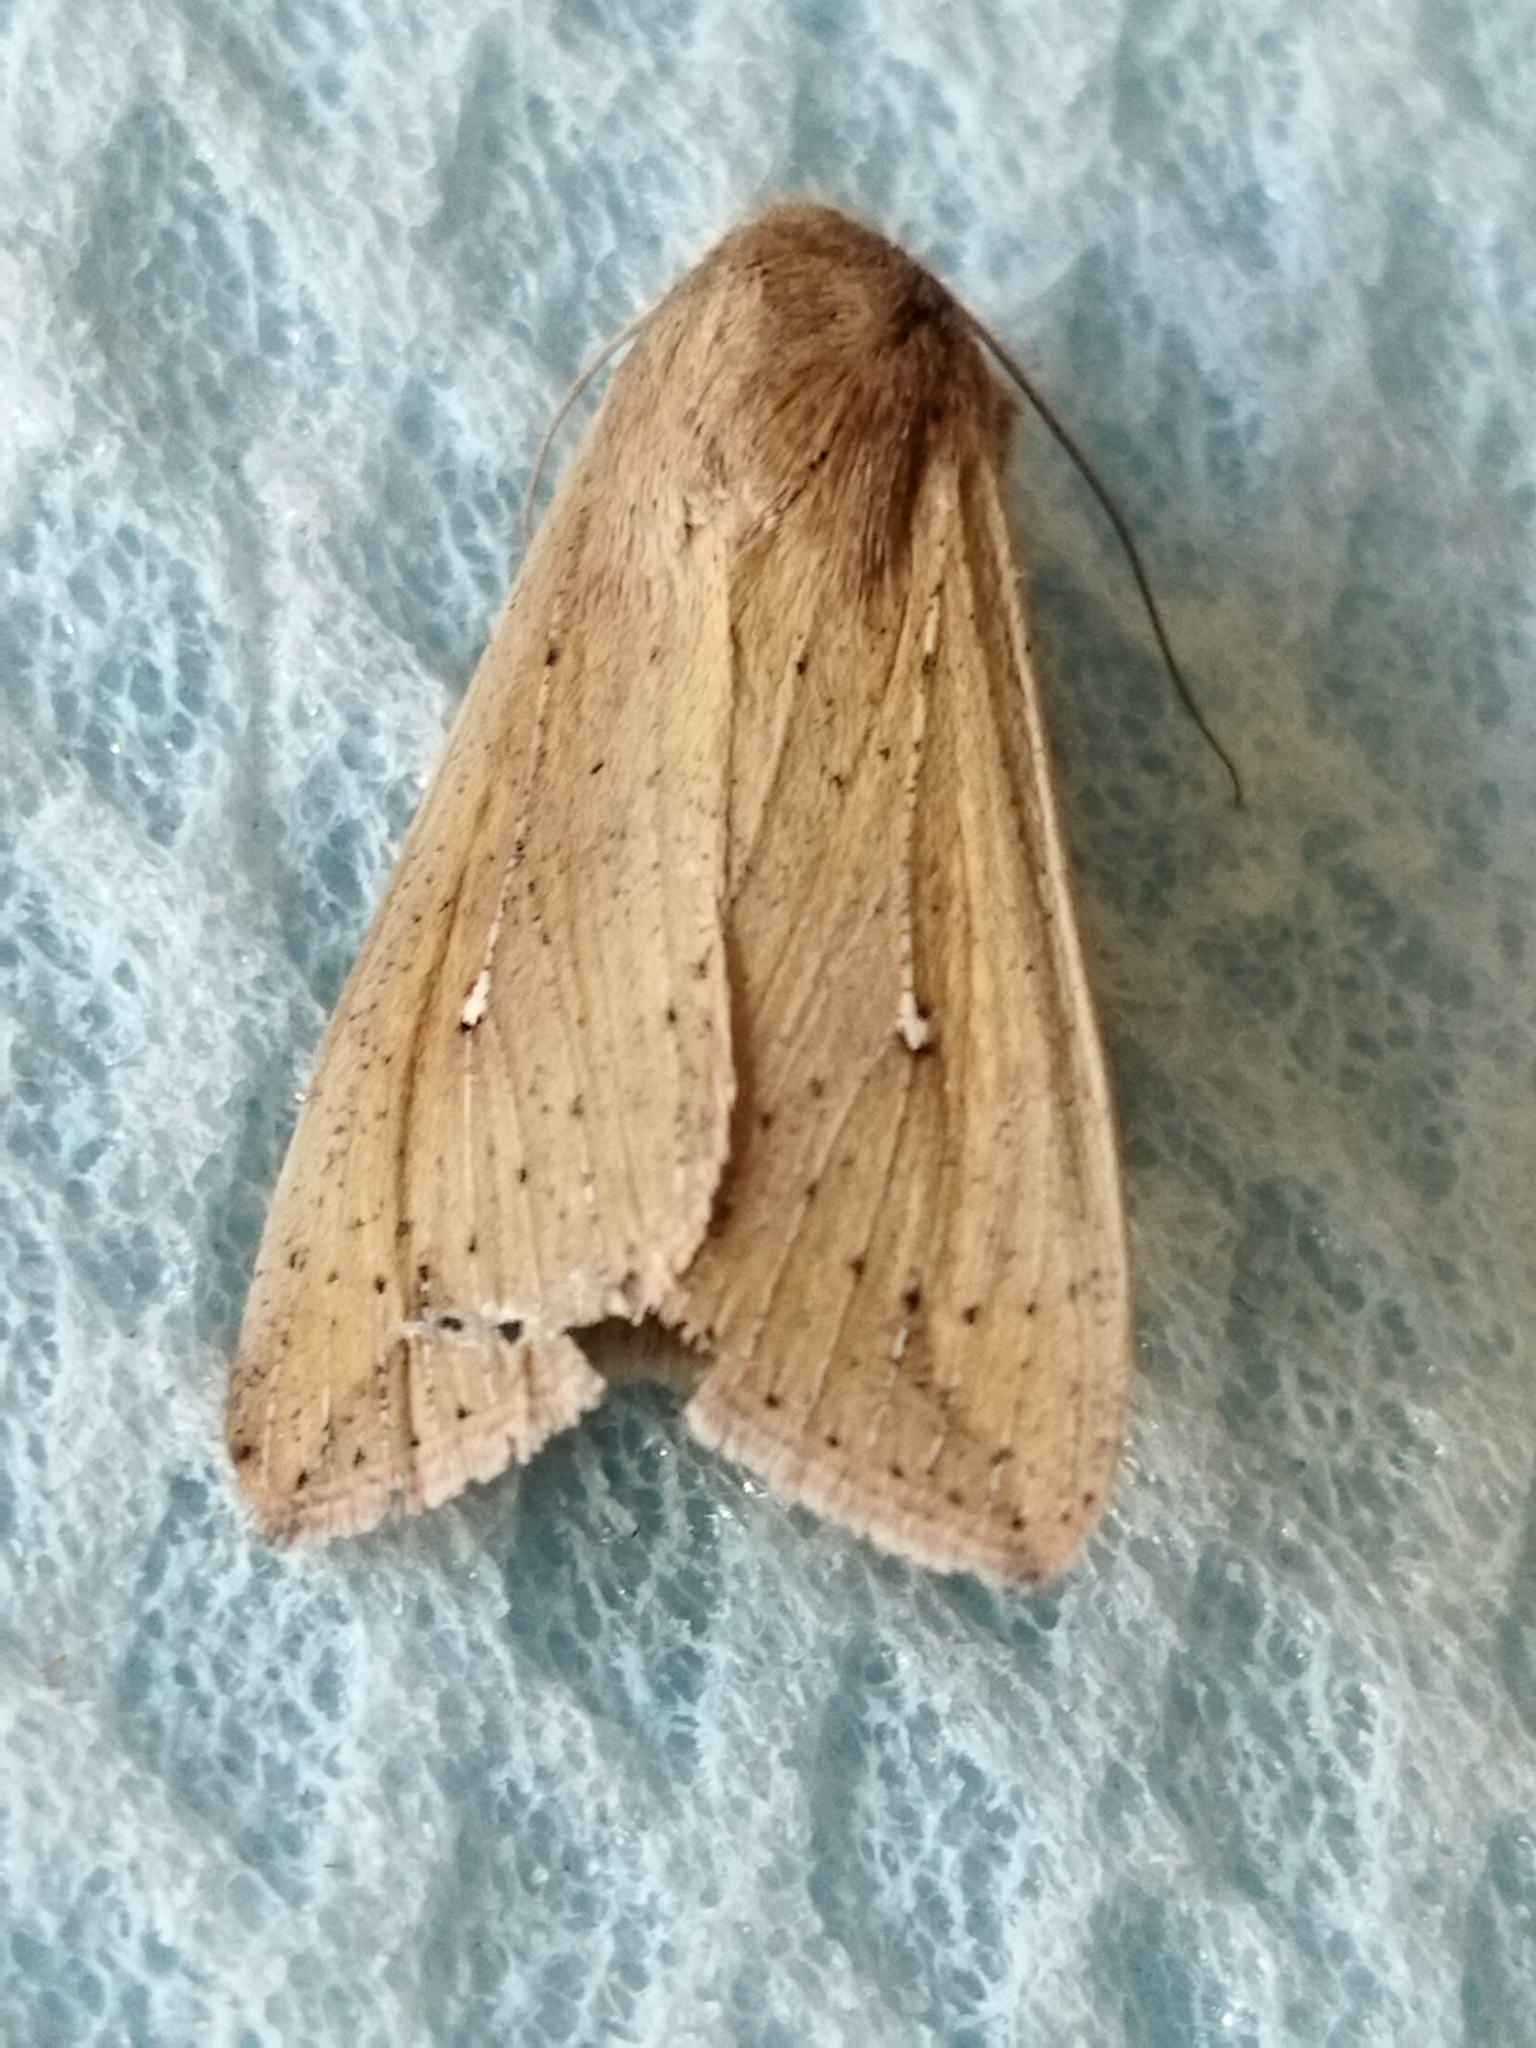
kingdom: Animalia
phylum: Arthropoda
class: Insecta
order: Lepidoptera
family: Noctuidae
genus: Mythimna
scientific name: Mythimna unipuncta
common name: White-speck
